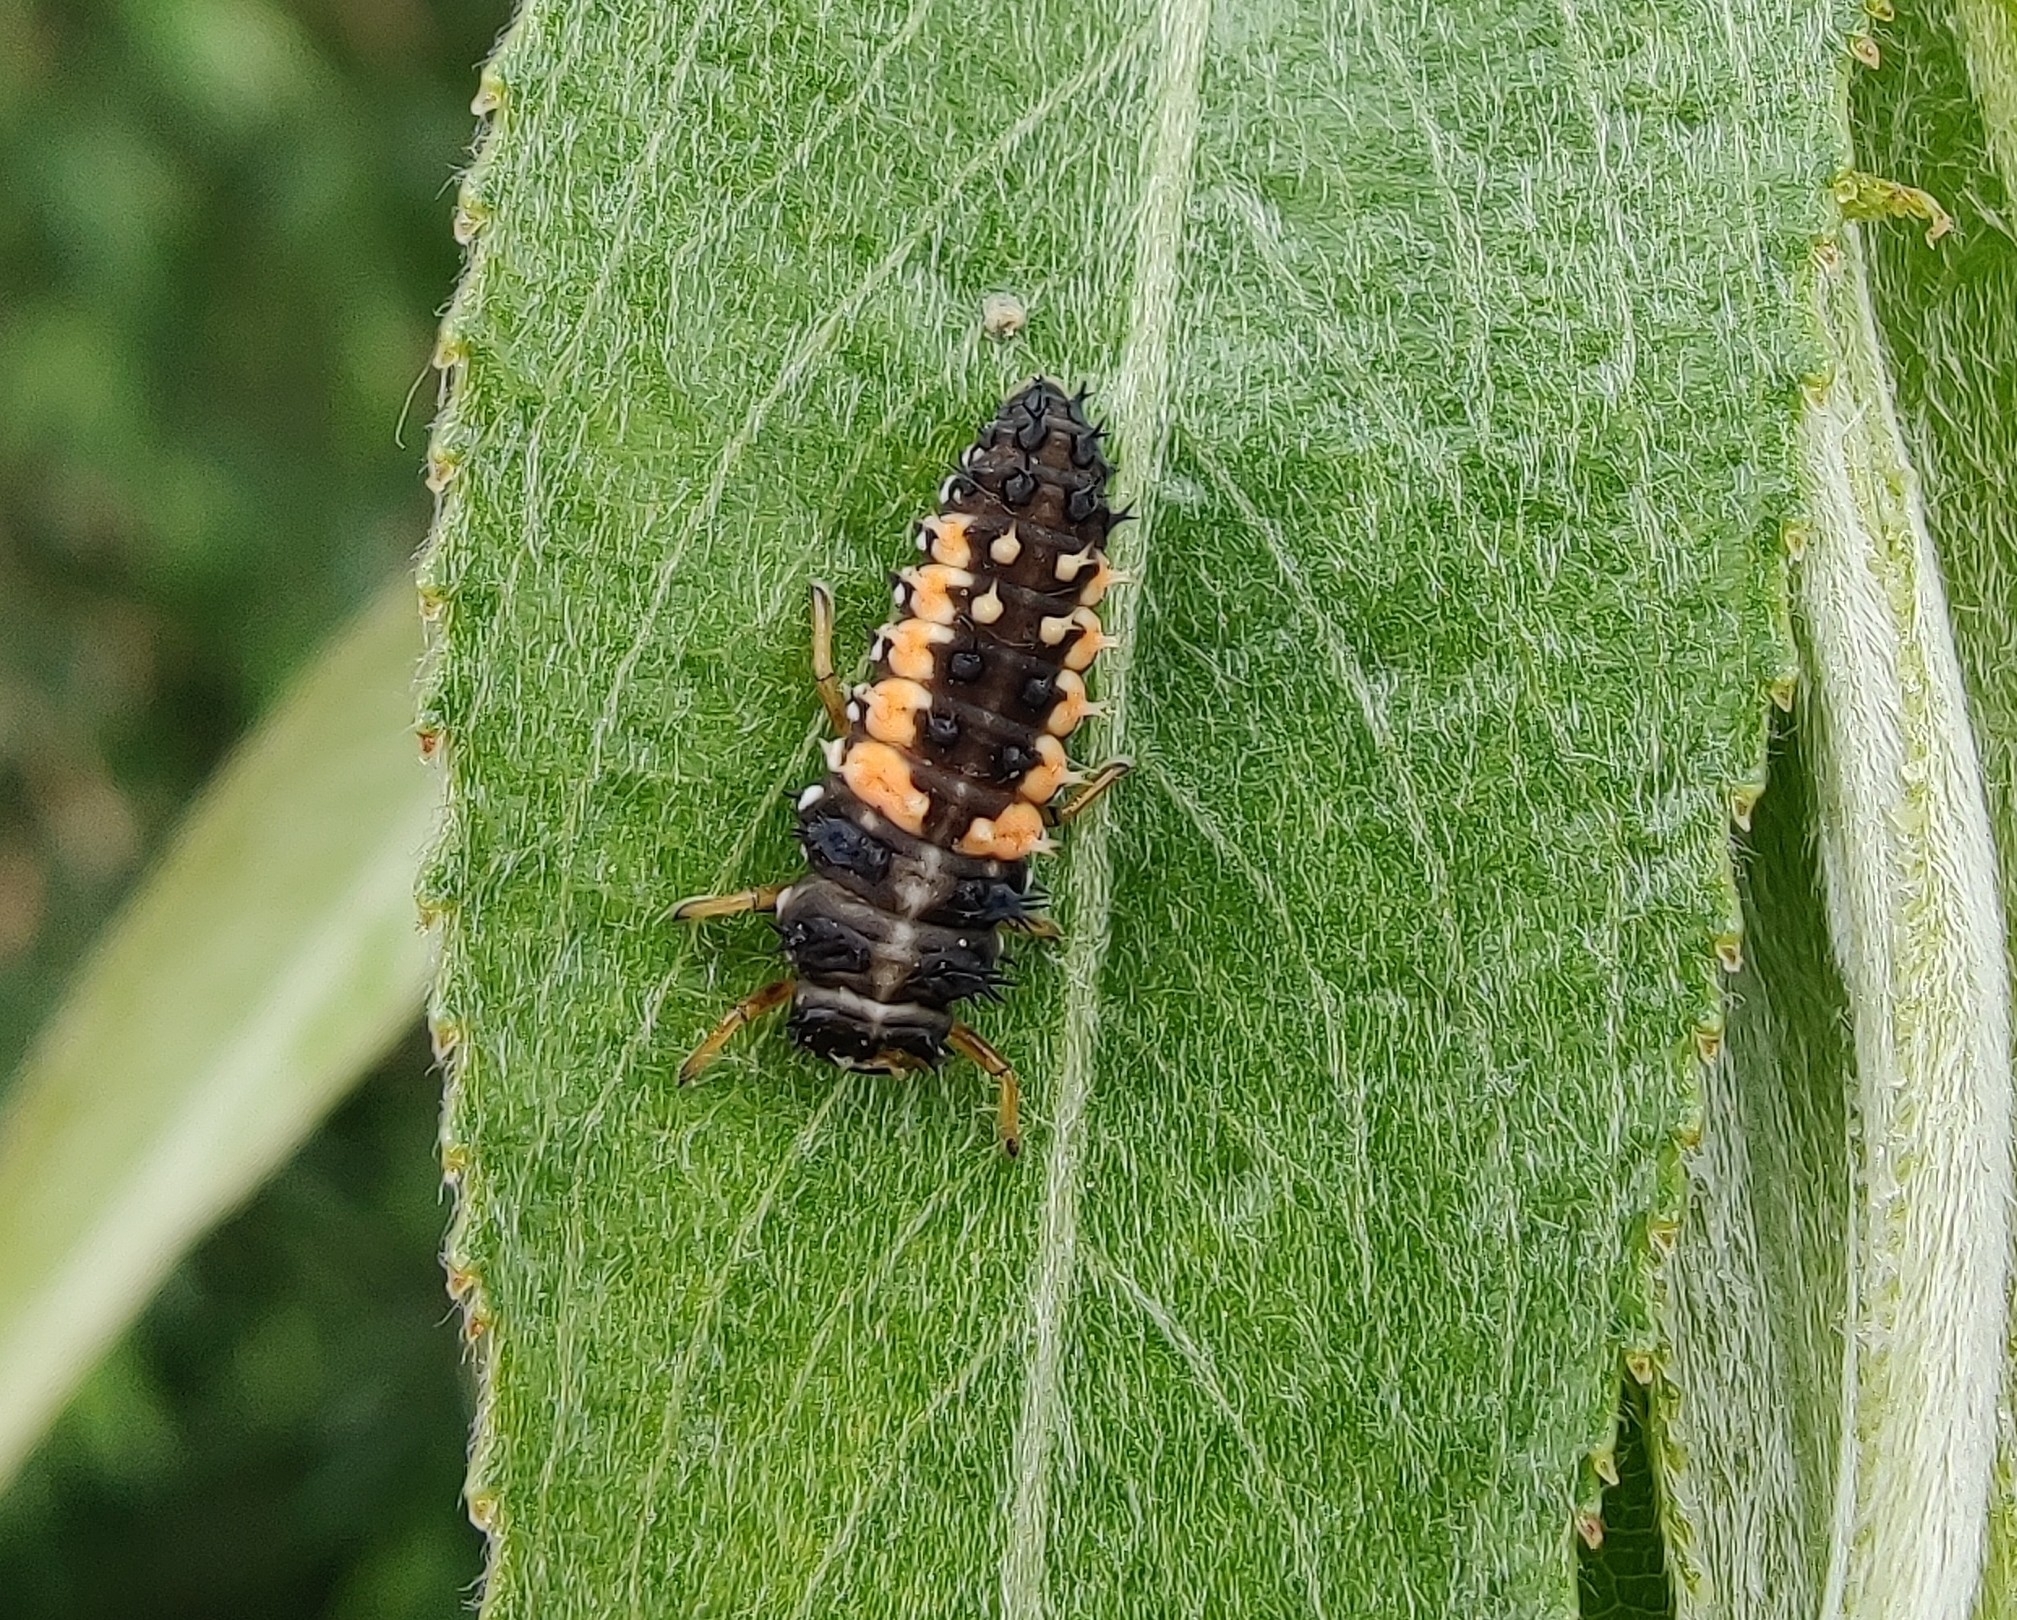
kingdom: Animalia
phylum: Arthropoda
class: Insecta
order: Coleoptera
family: Coccinellidae
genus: Harmonia
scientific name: Harmonia axyridis
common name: Harlequin ladybird
